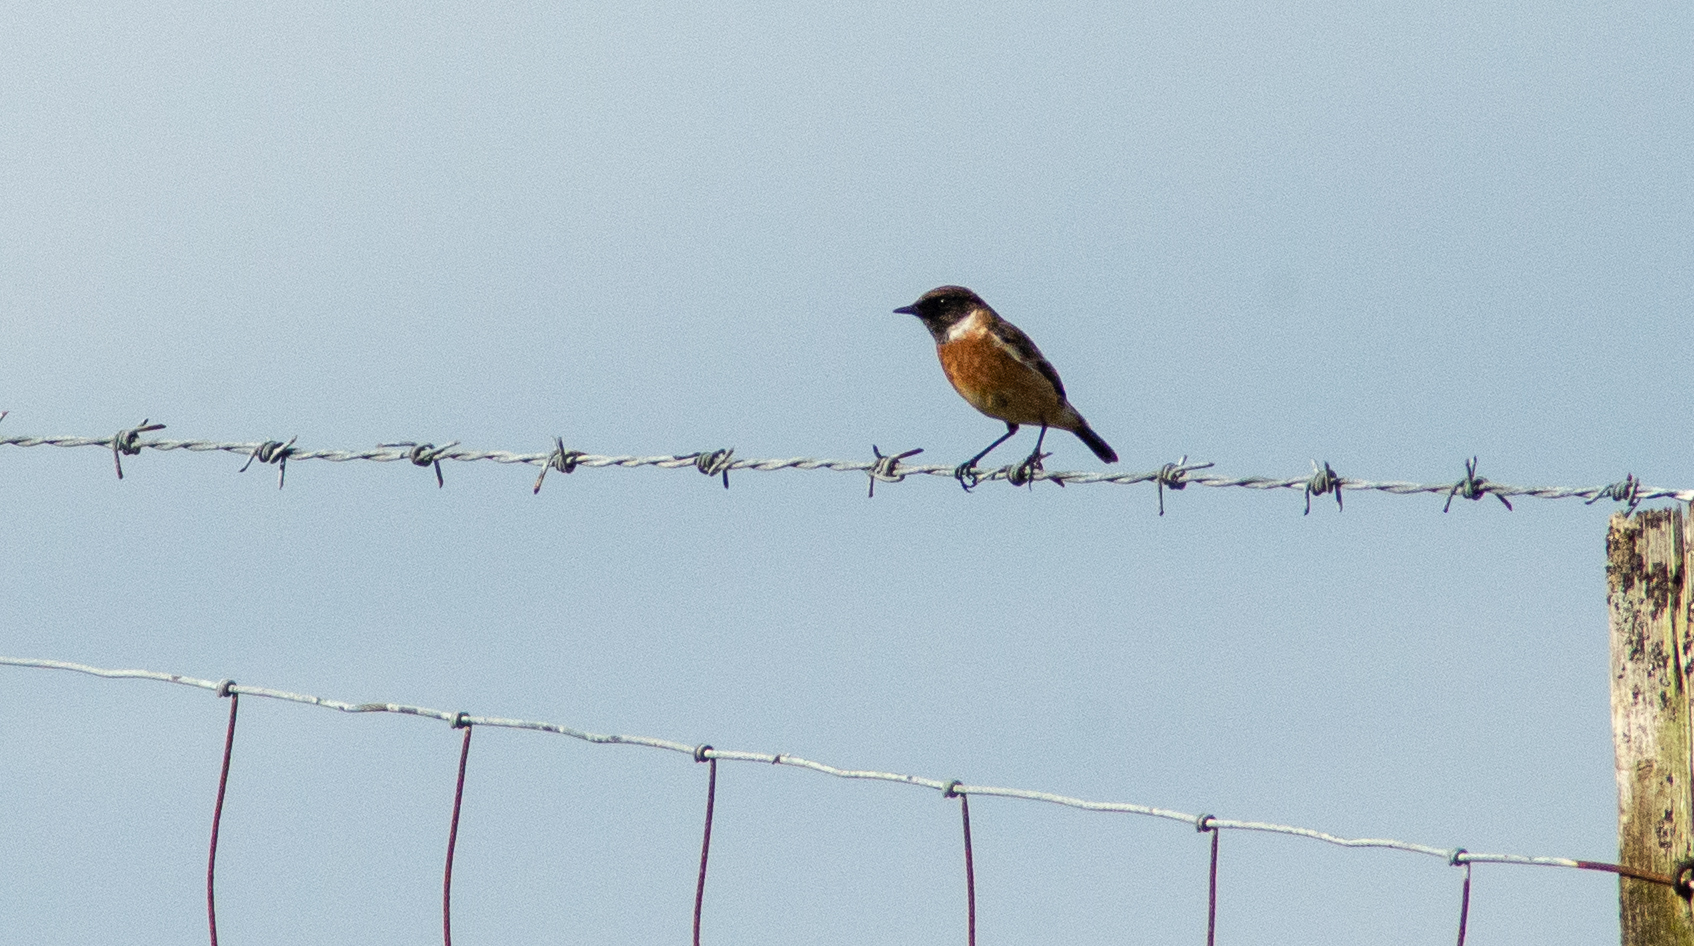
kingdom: Animalia
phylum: Chordata
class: Aves
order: Passeriformes
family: Muscicapidae
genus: Saxicola
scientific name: Saxicola rubicola
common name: European stonechat
